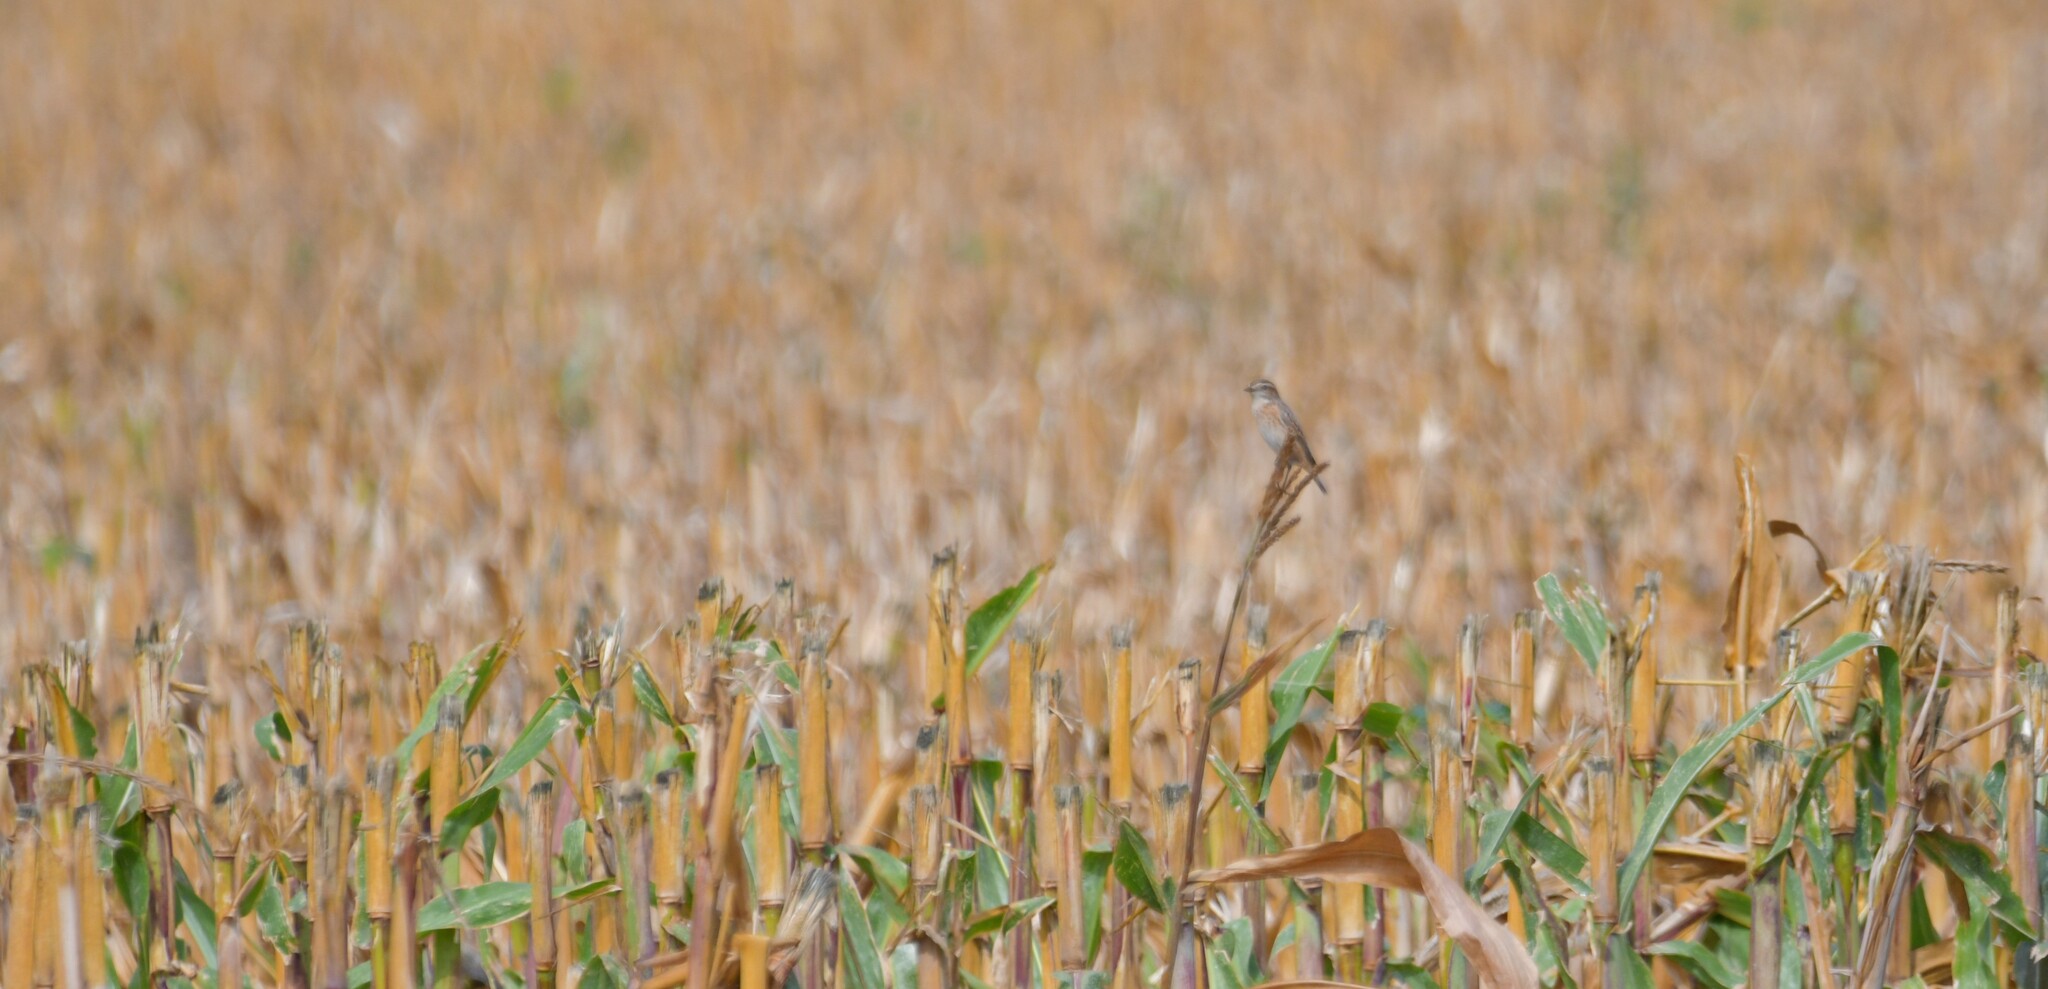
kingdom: Animalia
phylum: Chordata
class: Aves
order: Passeriformes
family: Muscicapidae
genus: Saxicola
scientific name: Saxicola rubetra
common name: Whinchat
